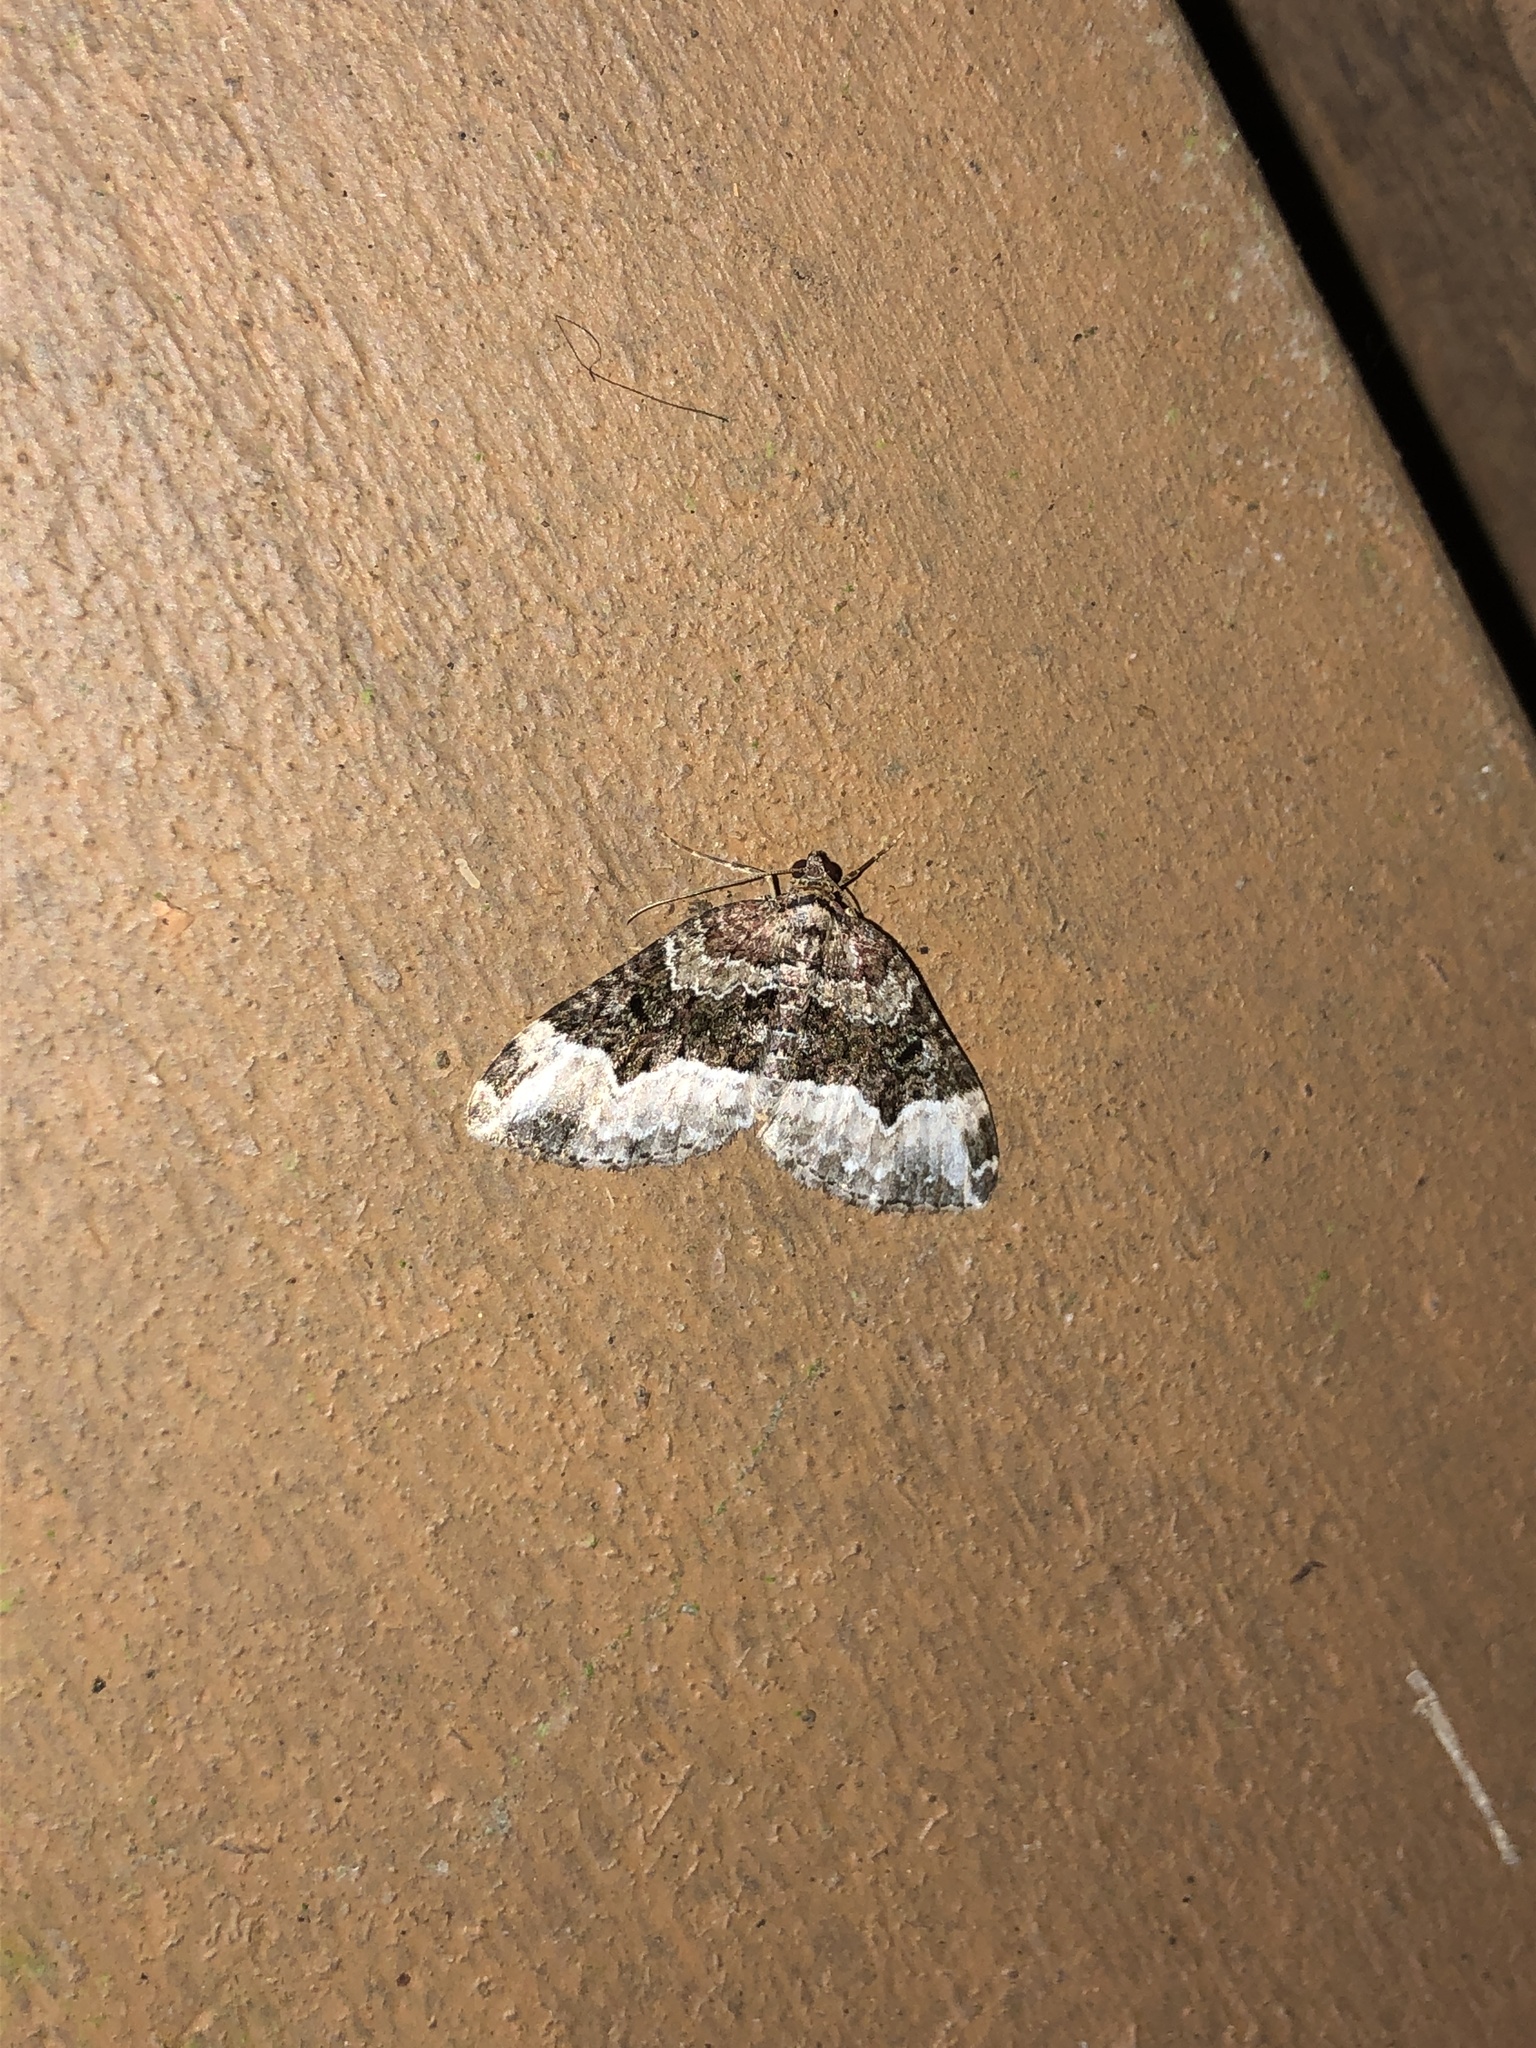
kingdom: Animalia
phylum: Arthropoda
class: Insecta
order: Lepidoptera
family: Geometridae
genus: Euphyia
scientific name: Euphyia intermediata
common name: Sharp-angled carpet
